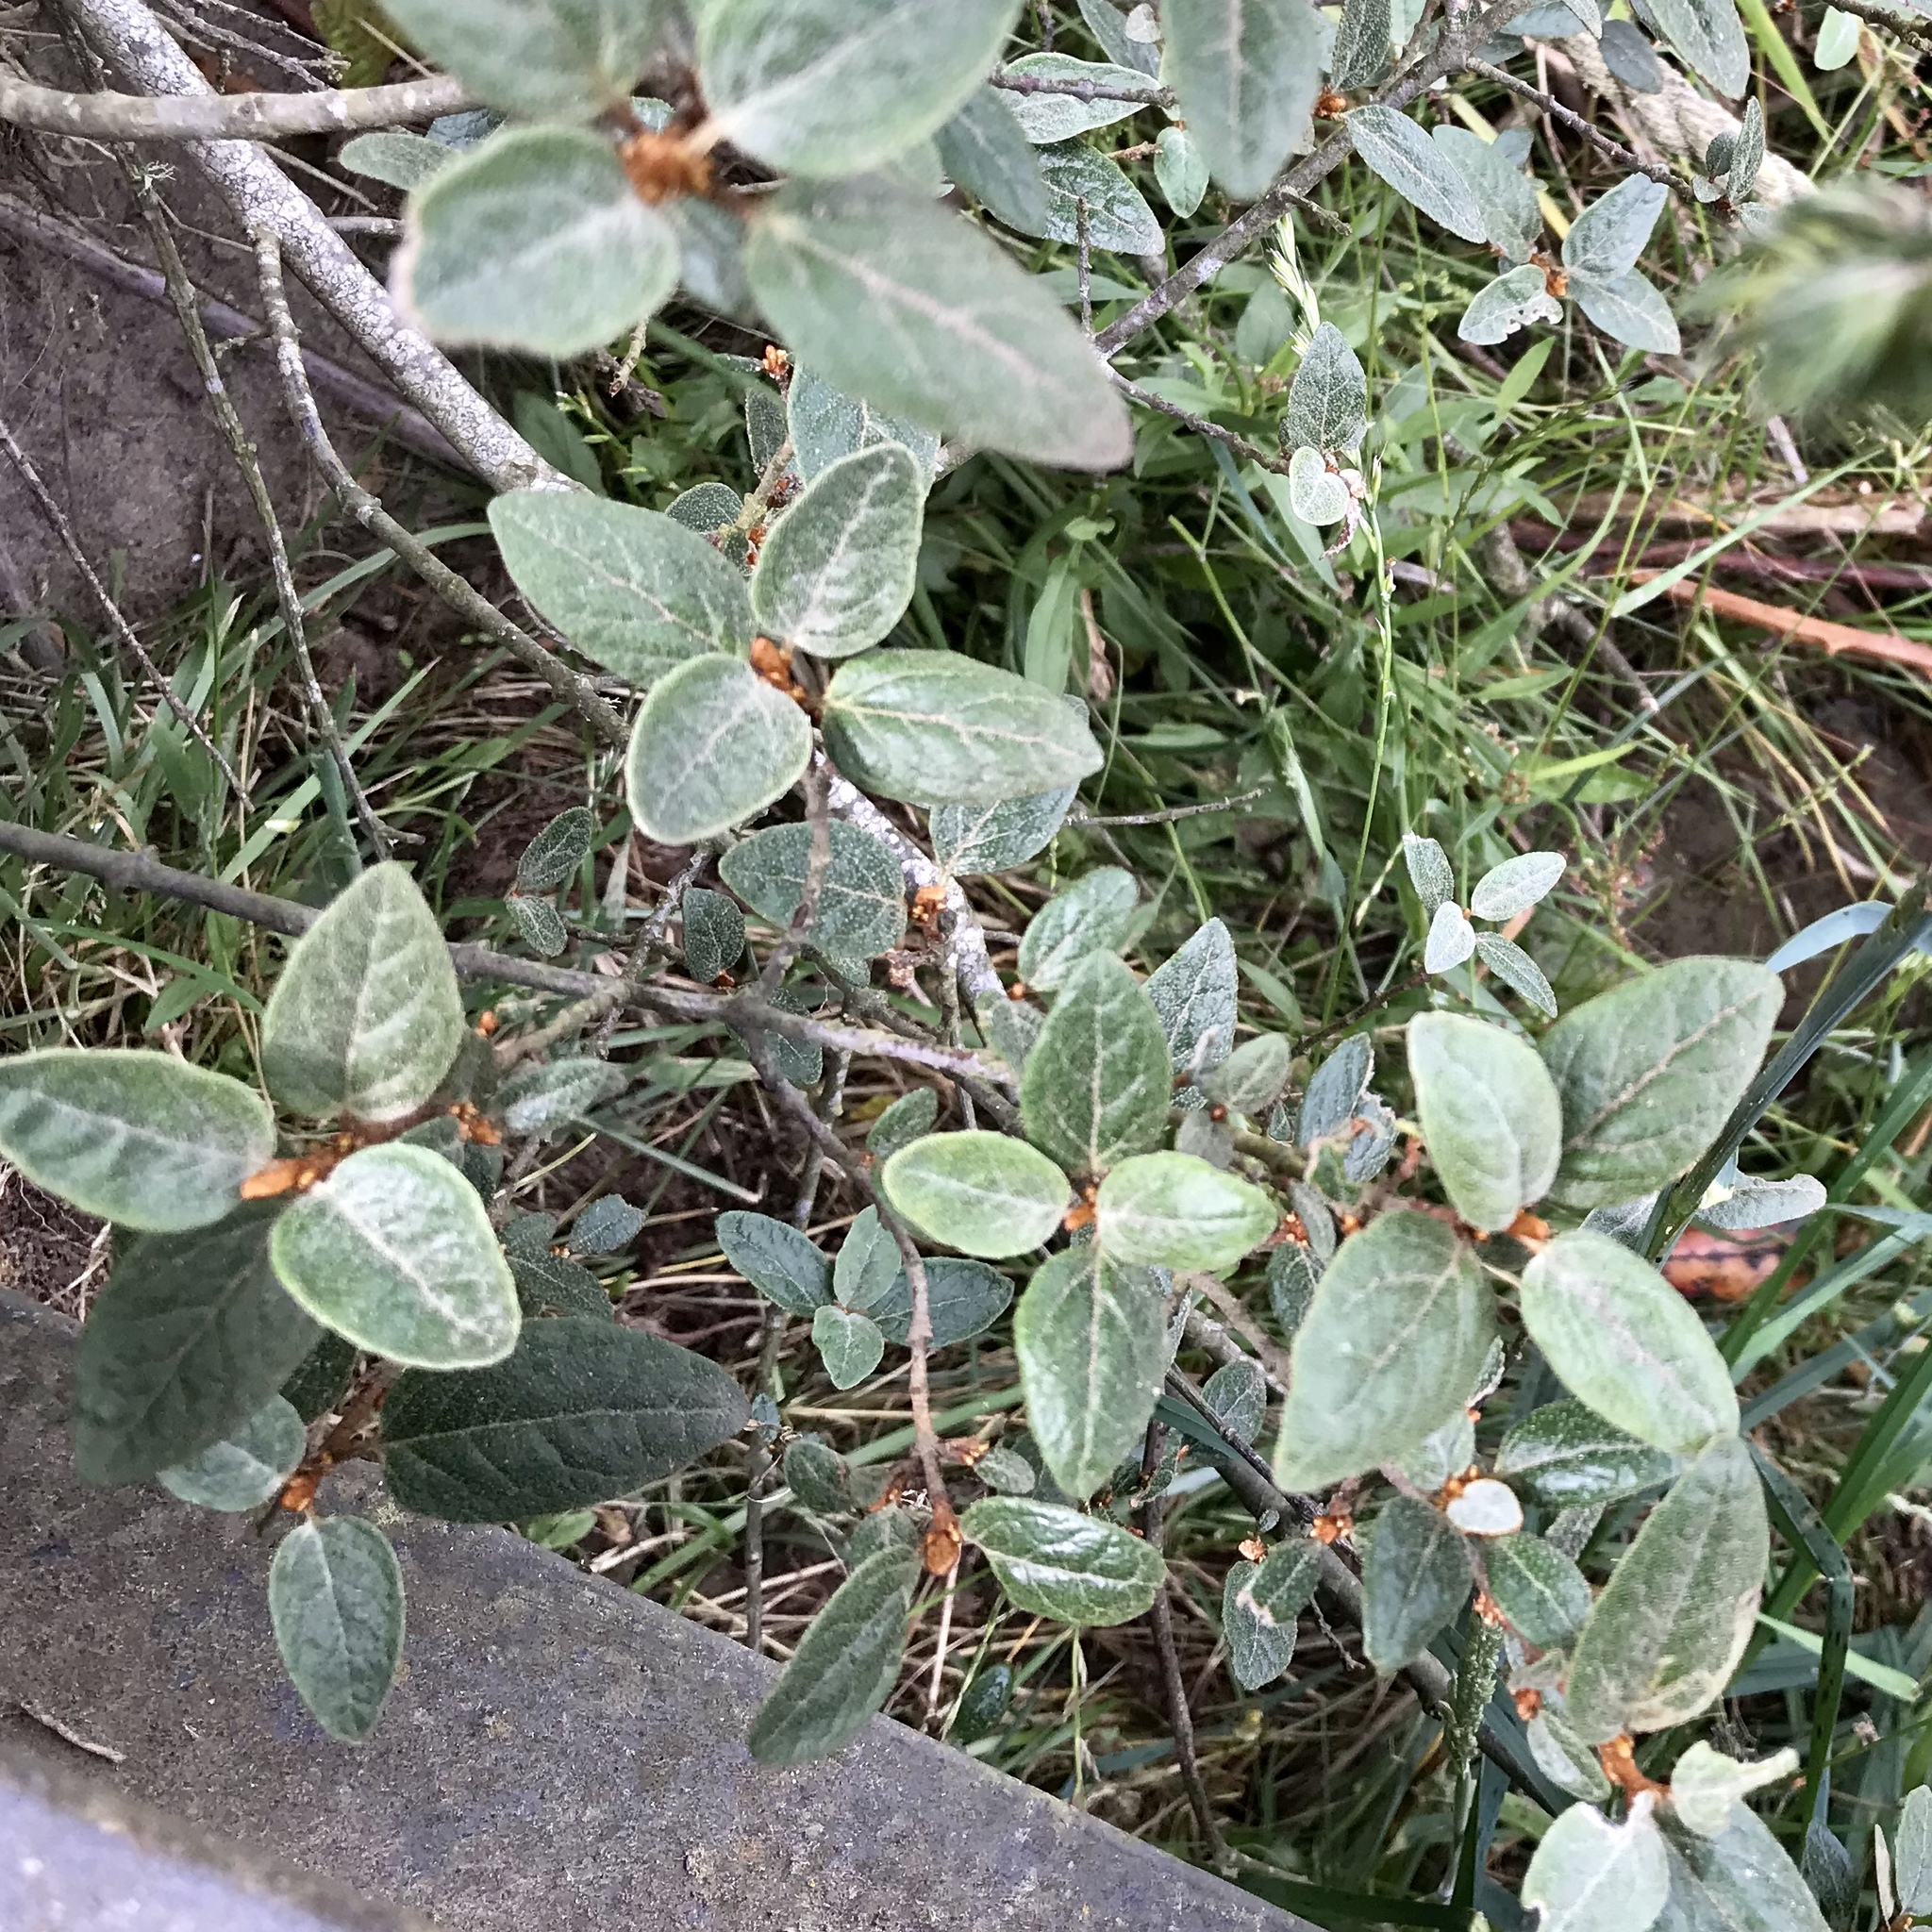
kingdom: Plantae
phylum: Tracheophyta
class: Magnoliopsida
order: Rosales
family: Elaeagnaceae
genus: Shepherdia
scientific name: Shepherdia canadensis
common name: Soapberry
